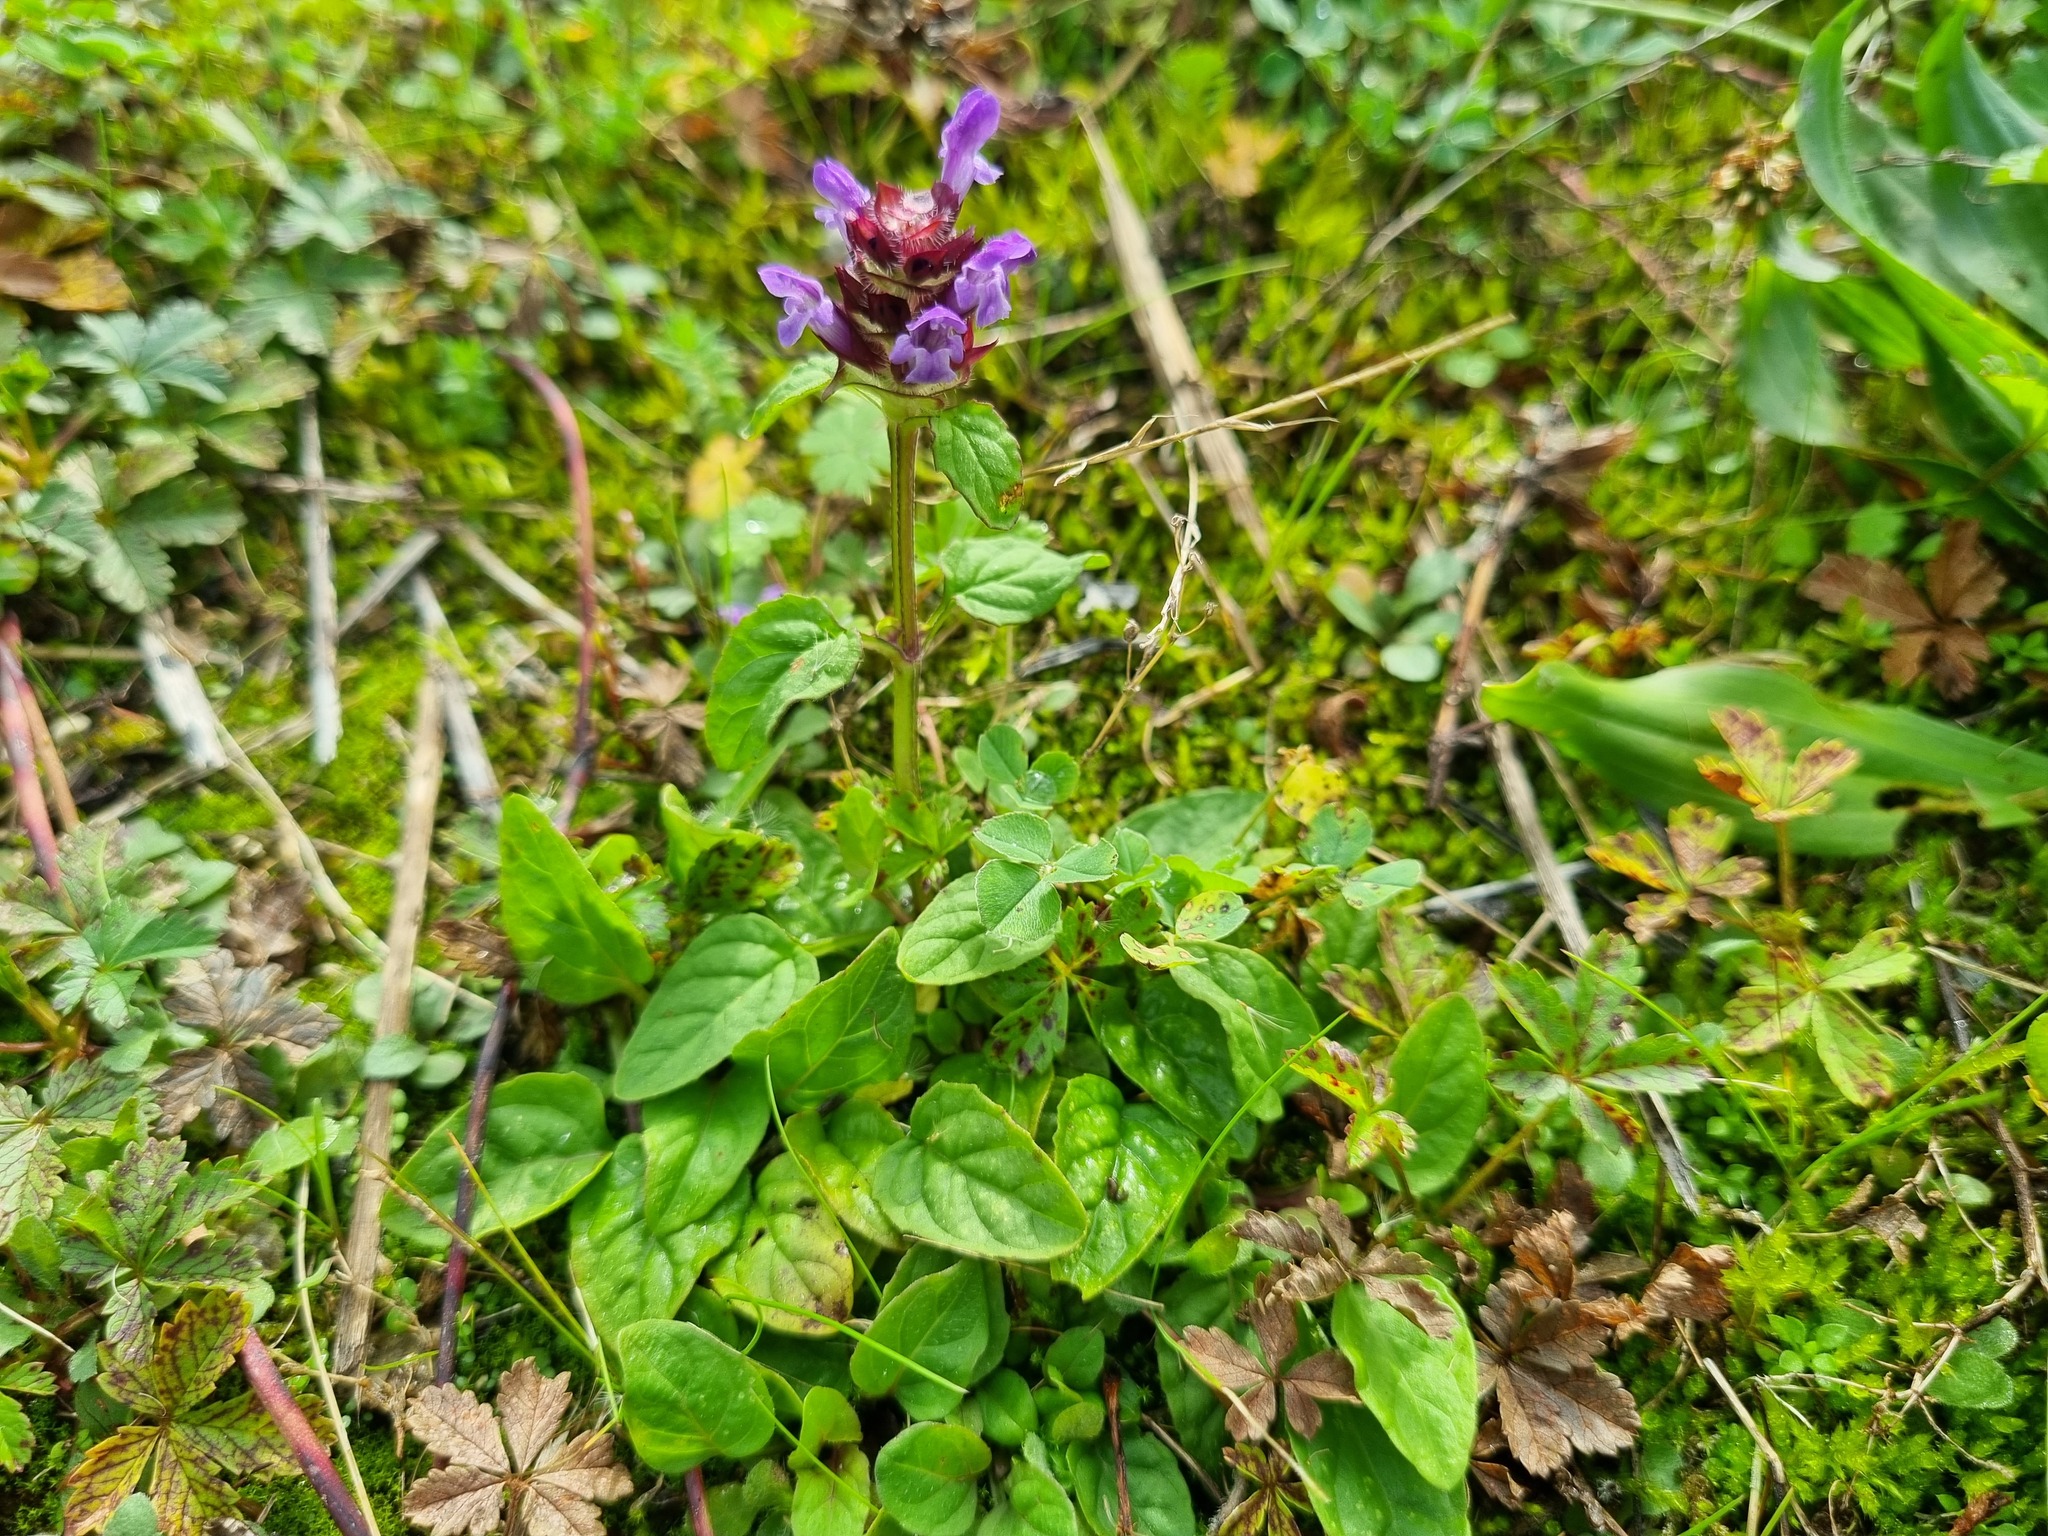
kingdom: Plantae
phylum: Tracheophyta
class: Magnoliopsida
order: Lamiales
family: Lamiaceae
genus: Prunella
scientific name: Prunella vulgaris
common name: Heal-all
